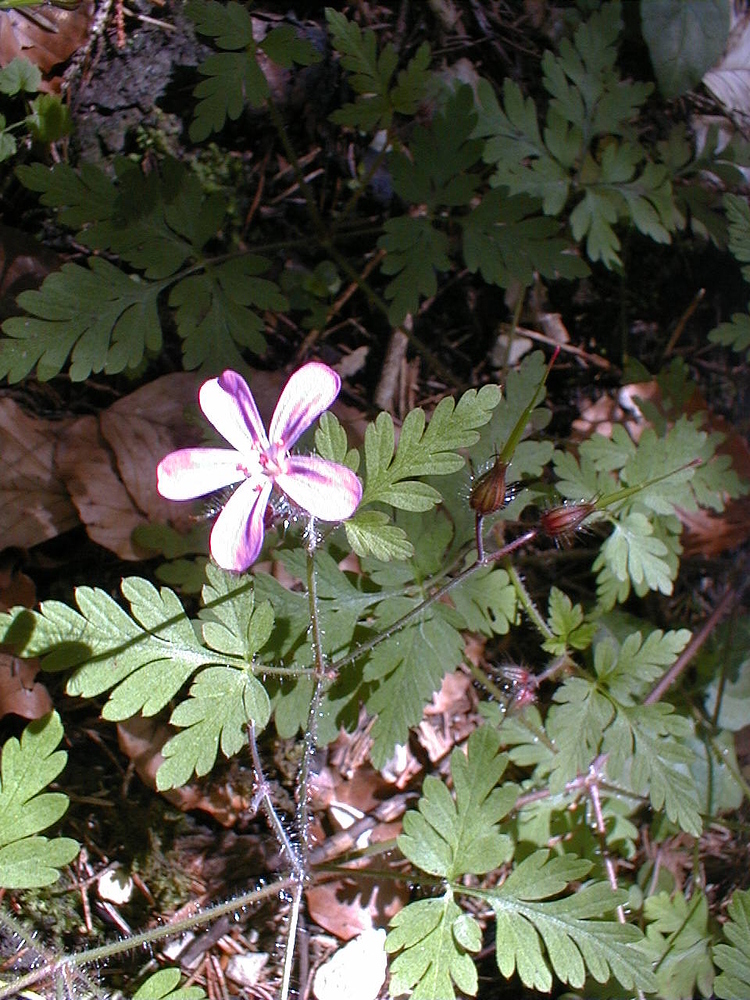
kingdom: Plantae
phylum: Tracheophyta
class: Magnoliopsida
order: Geraniales
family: Geraniaceae
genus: Geranium
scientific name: Geranium robertianum
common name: Herb-robert
